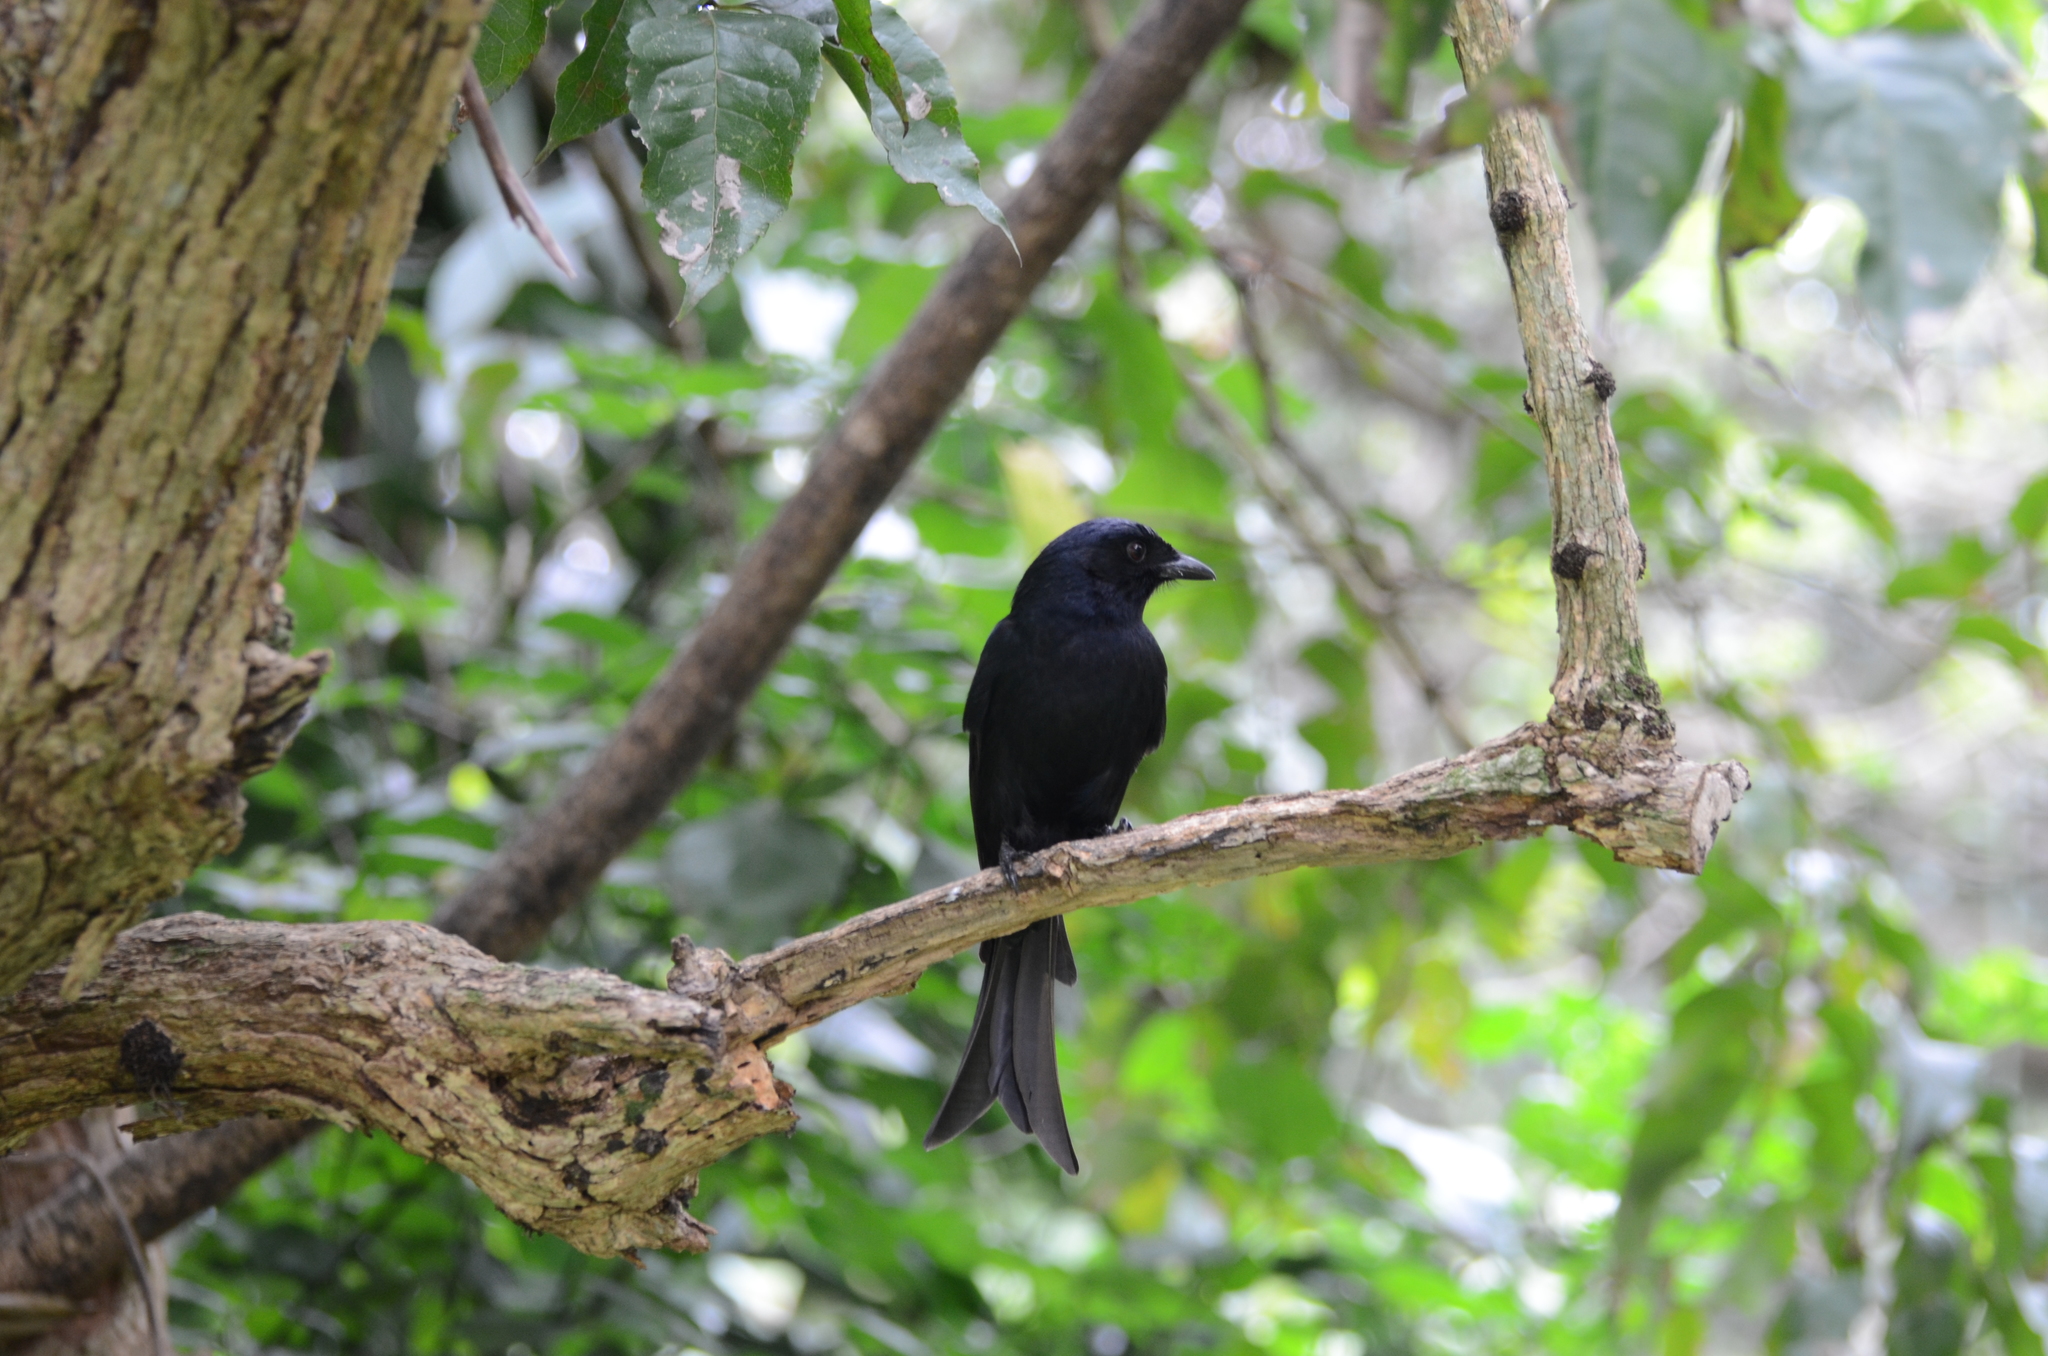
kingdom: Animalia
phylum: Chordata
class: Aves
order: Passeriformes
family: Dicruridae
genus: Dicrurus
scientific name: Dicrurus adsimilis
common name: Fork-tailed drongo
